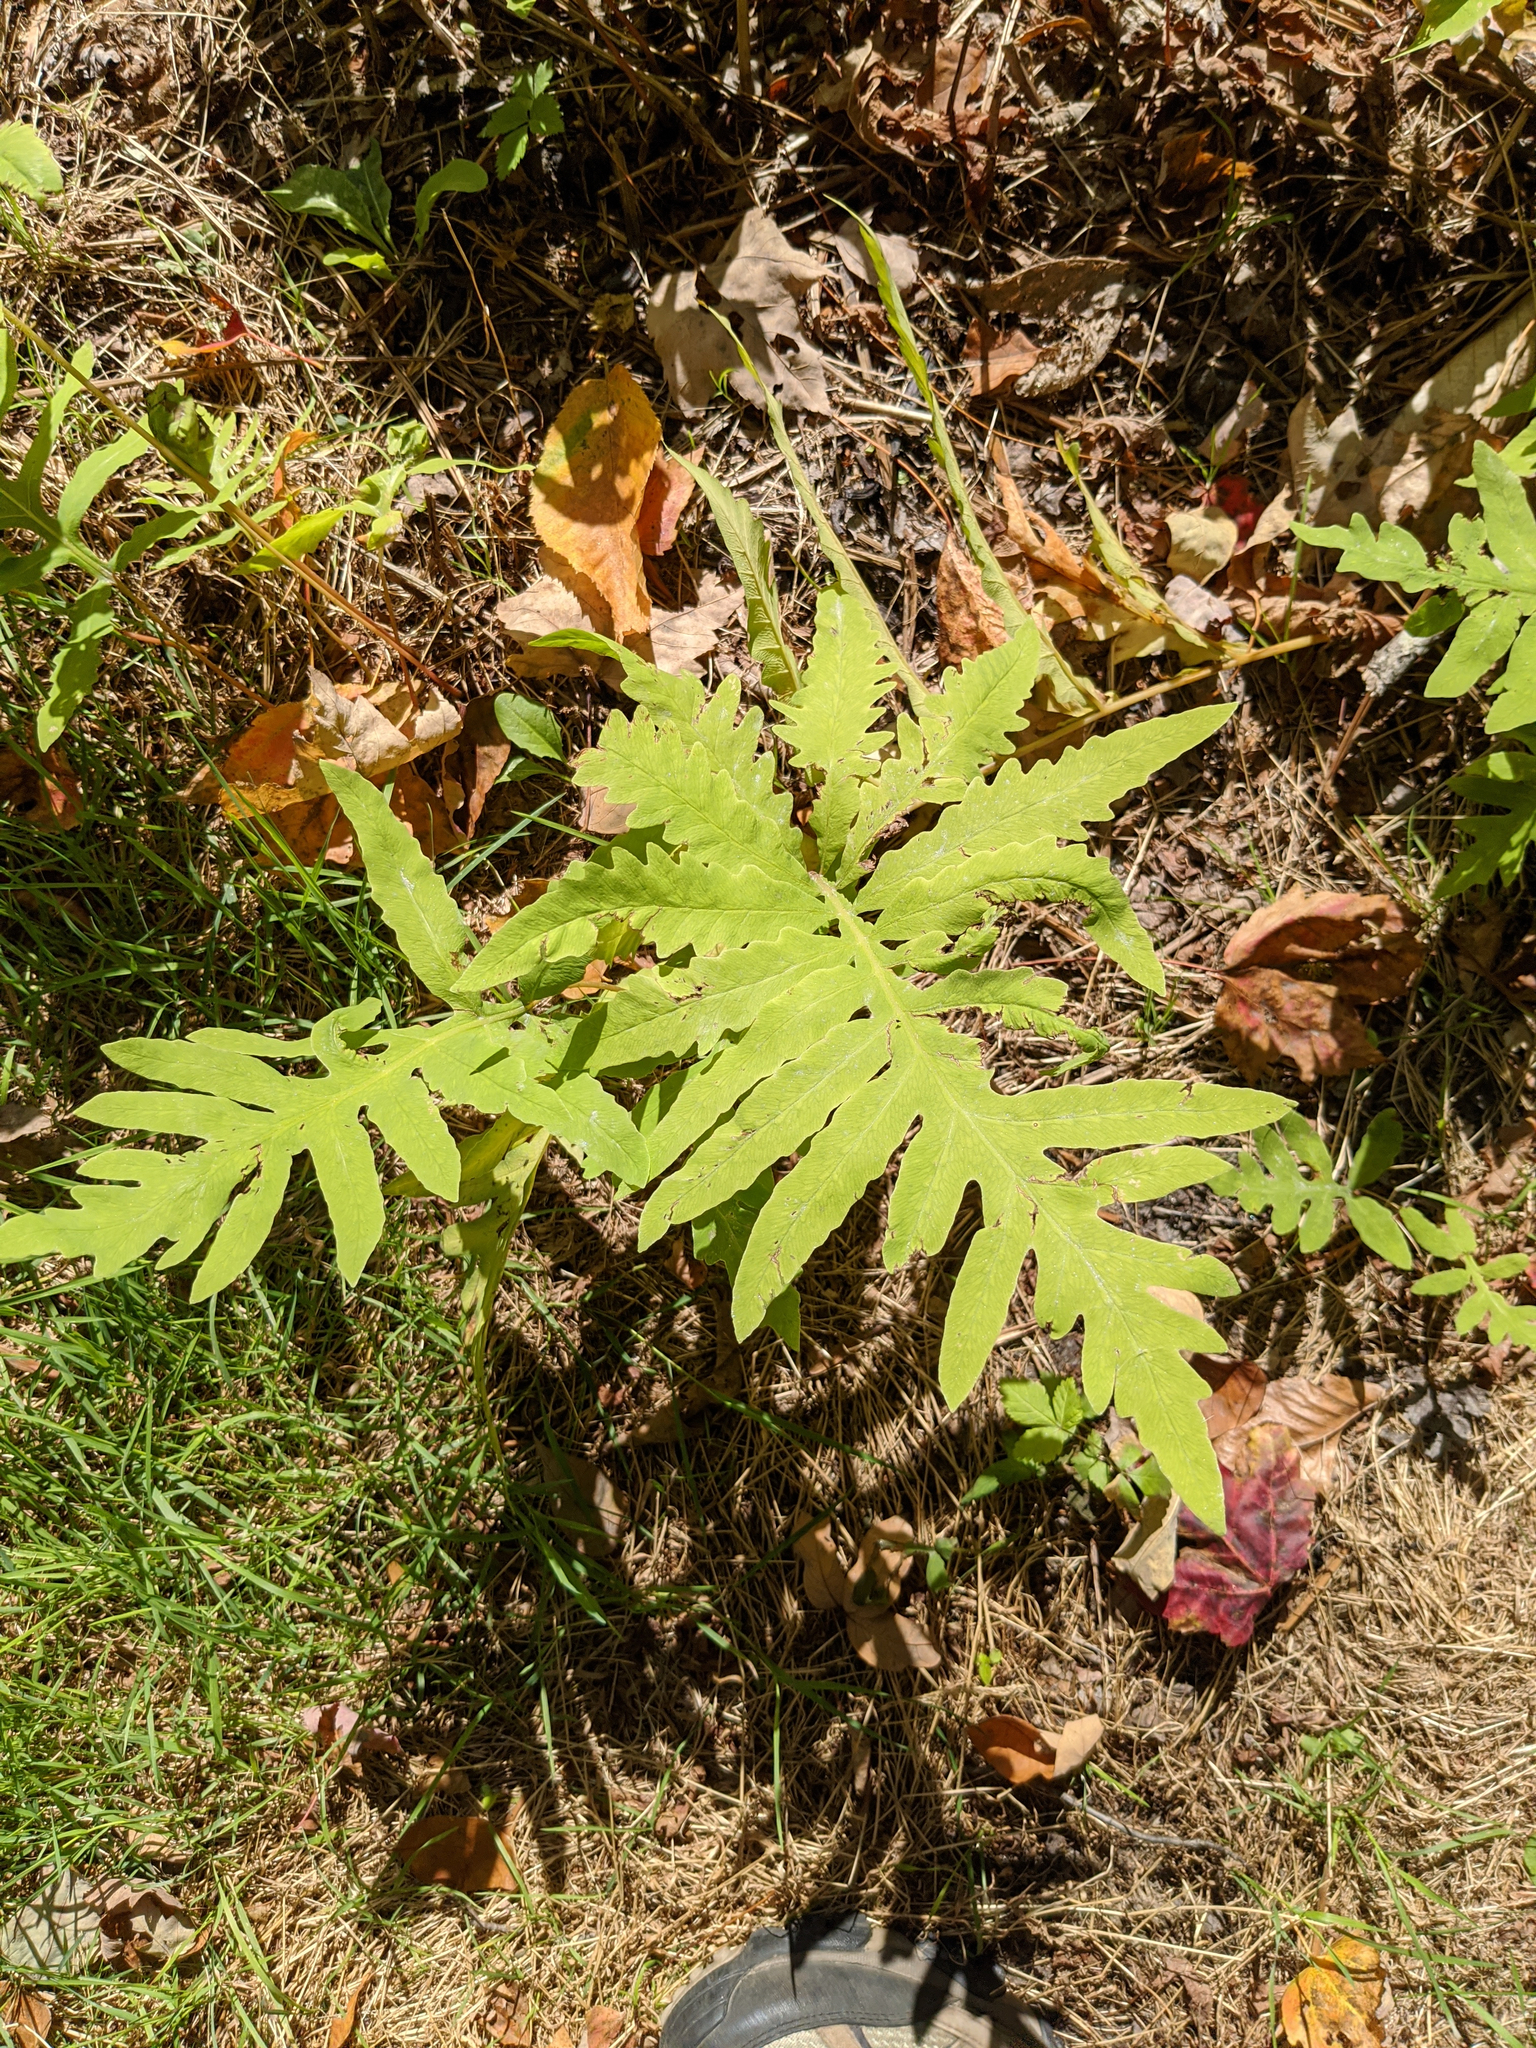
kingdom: Plantae
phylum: Tracheophyta
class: Polypodiopsida
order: Polypodiales
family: Onocleaceae
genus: Onoclea
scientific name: Onoclea sensibilis
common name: Sensitive fern
